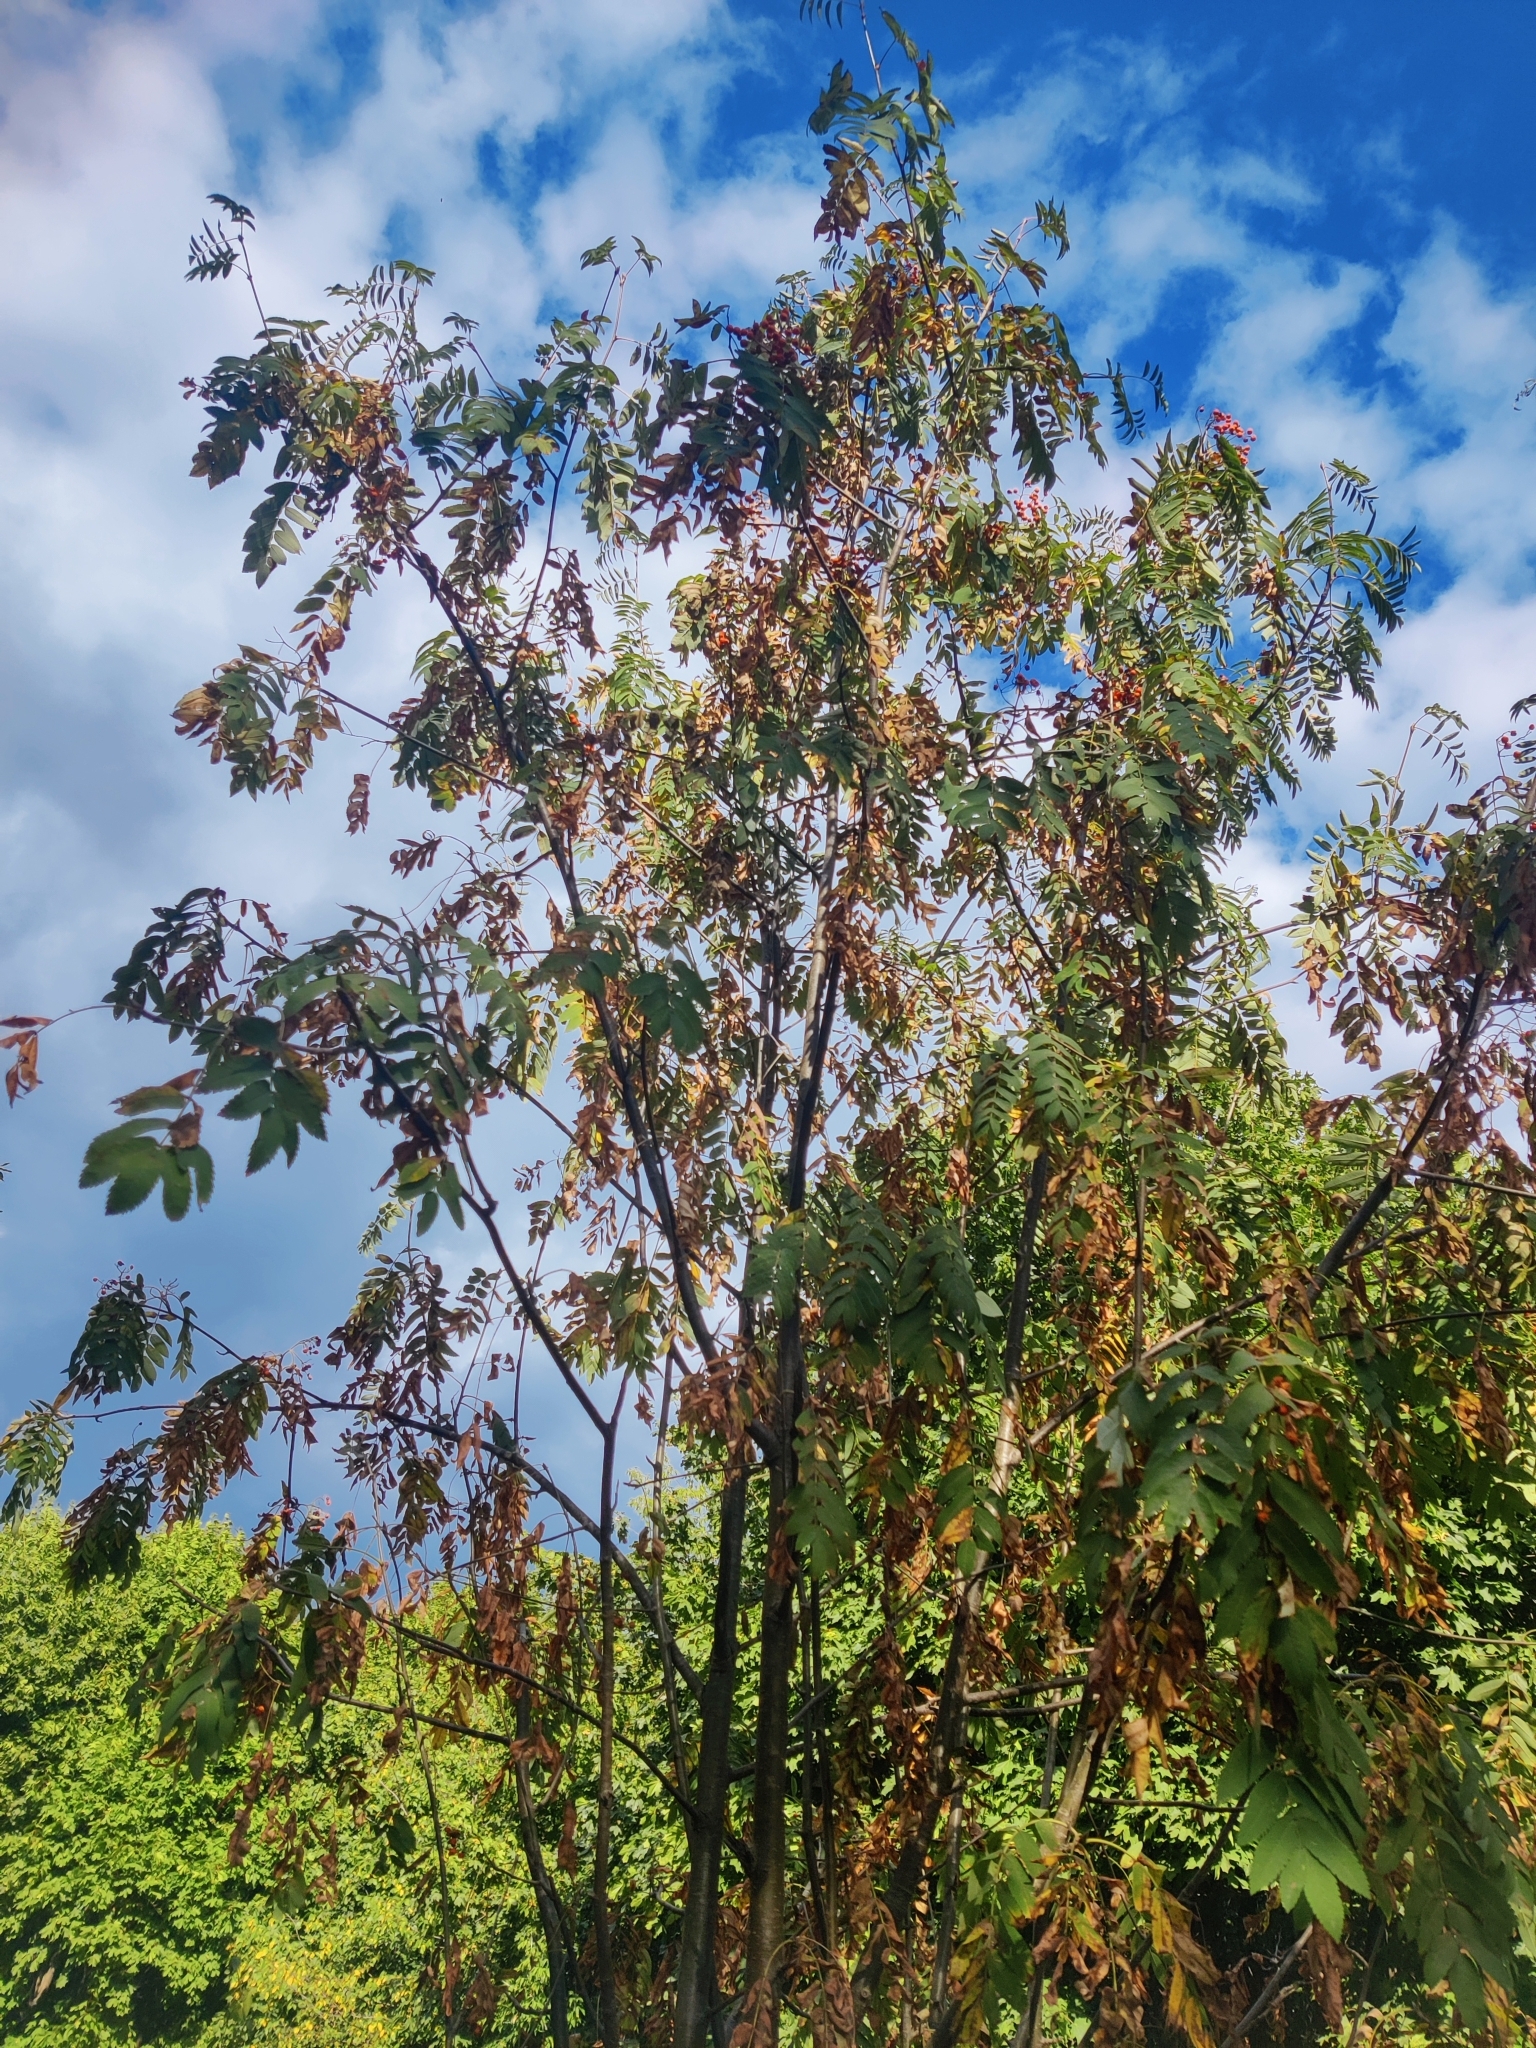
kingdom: Plantae
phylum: Tracheophyta
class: Magnoliopsida
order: Rosales
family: Rosaceae
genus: Sorbus
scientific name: Sorbus aucuparia
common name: Rowan
